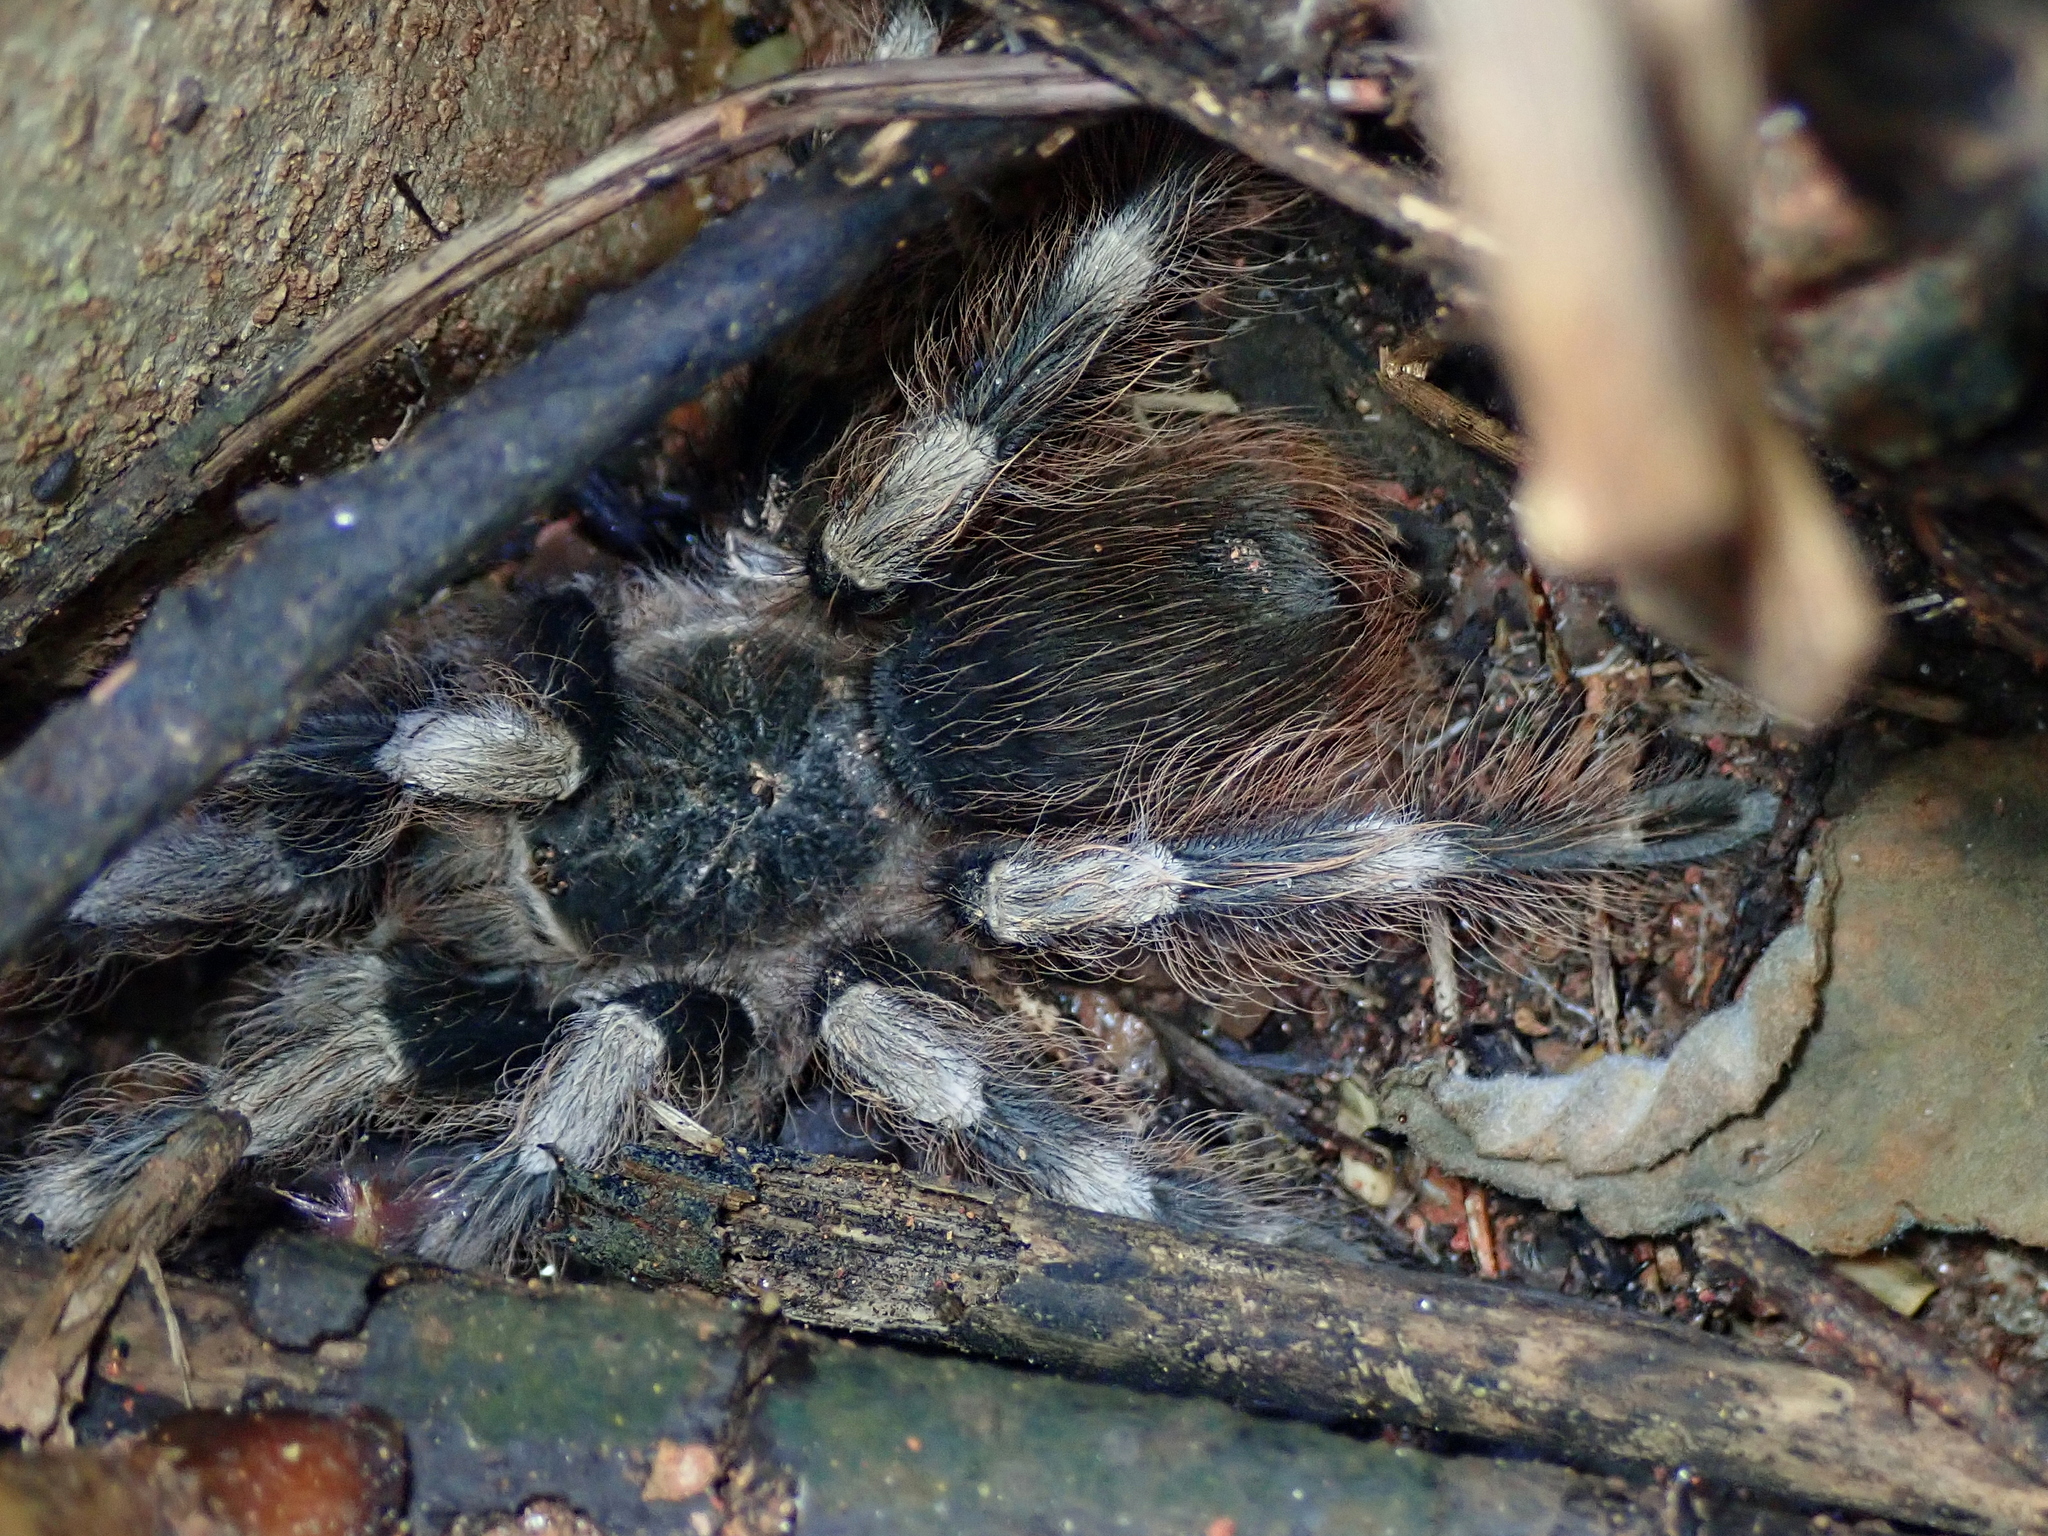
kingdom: Animalia
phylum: Arthropoda
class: Arachnida
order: Araneae
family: Theraphosidae
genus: Nhandu
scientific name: Nhandu coloratovillosus
